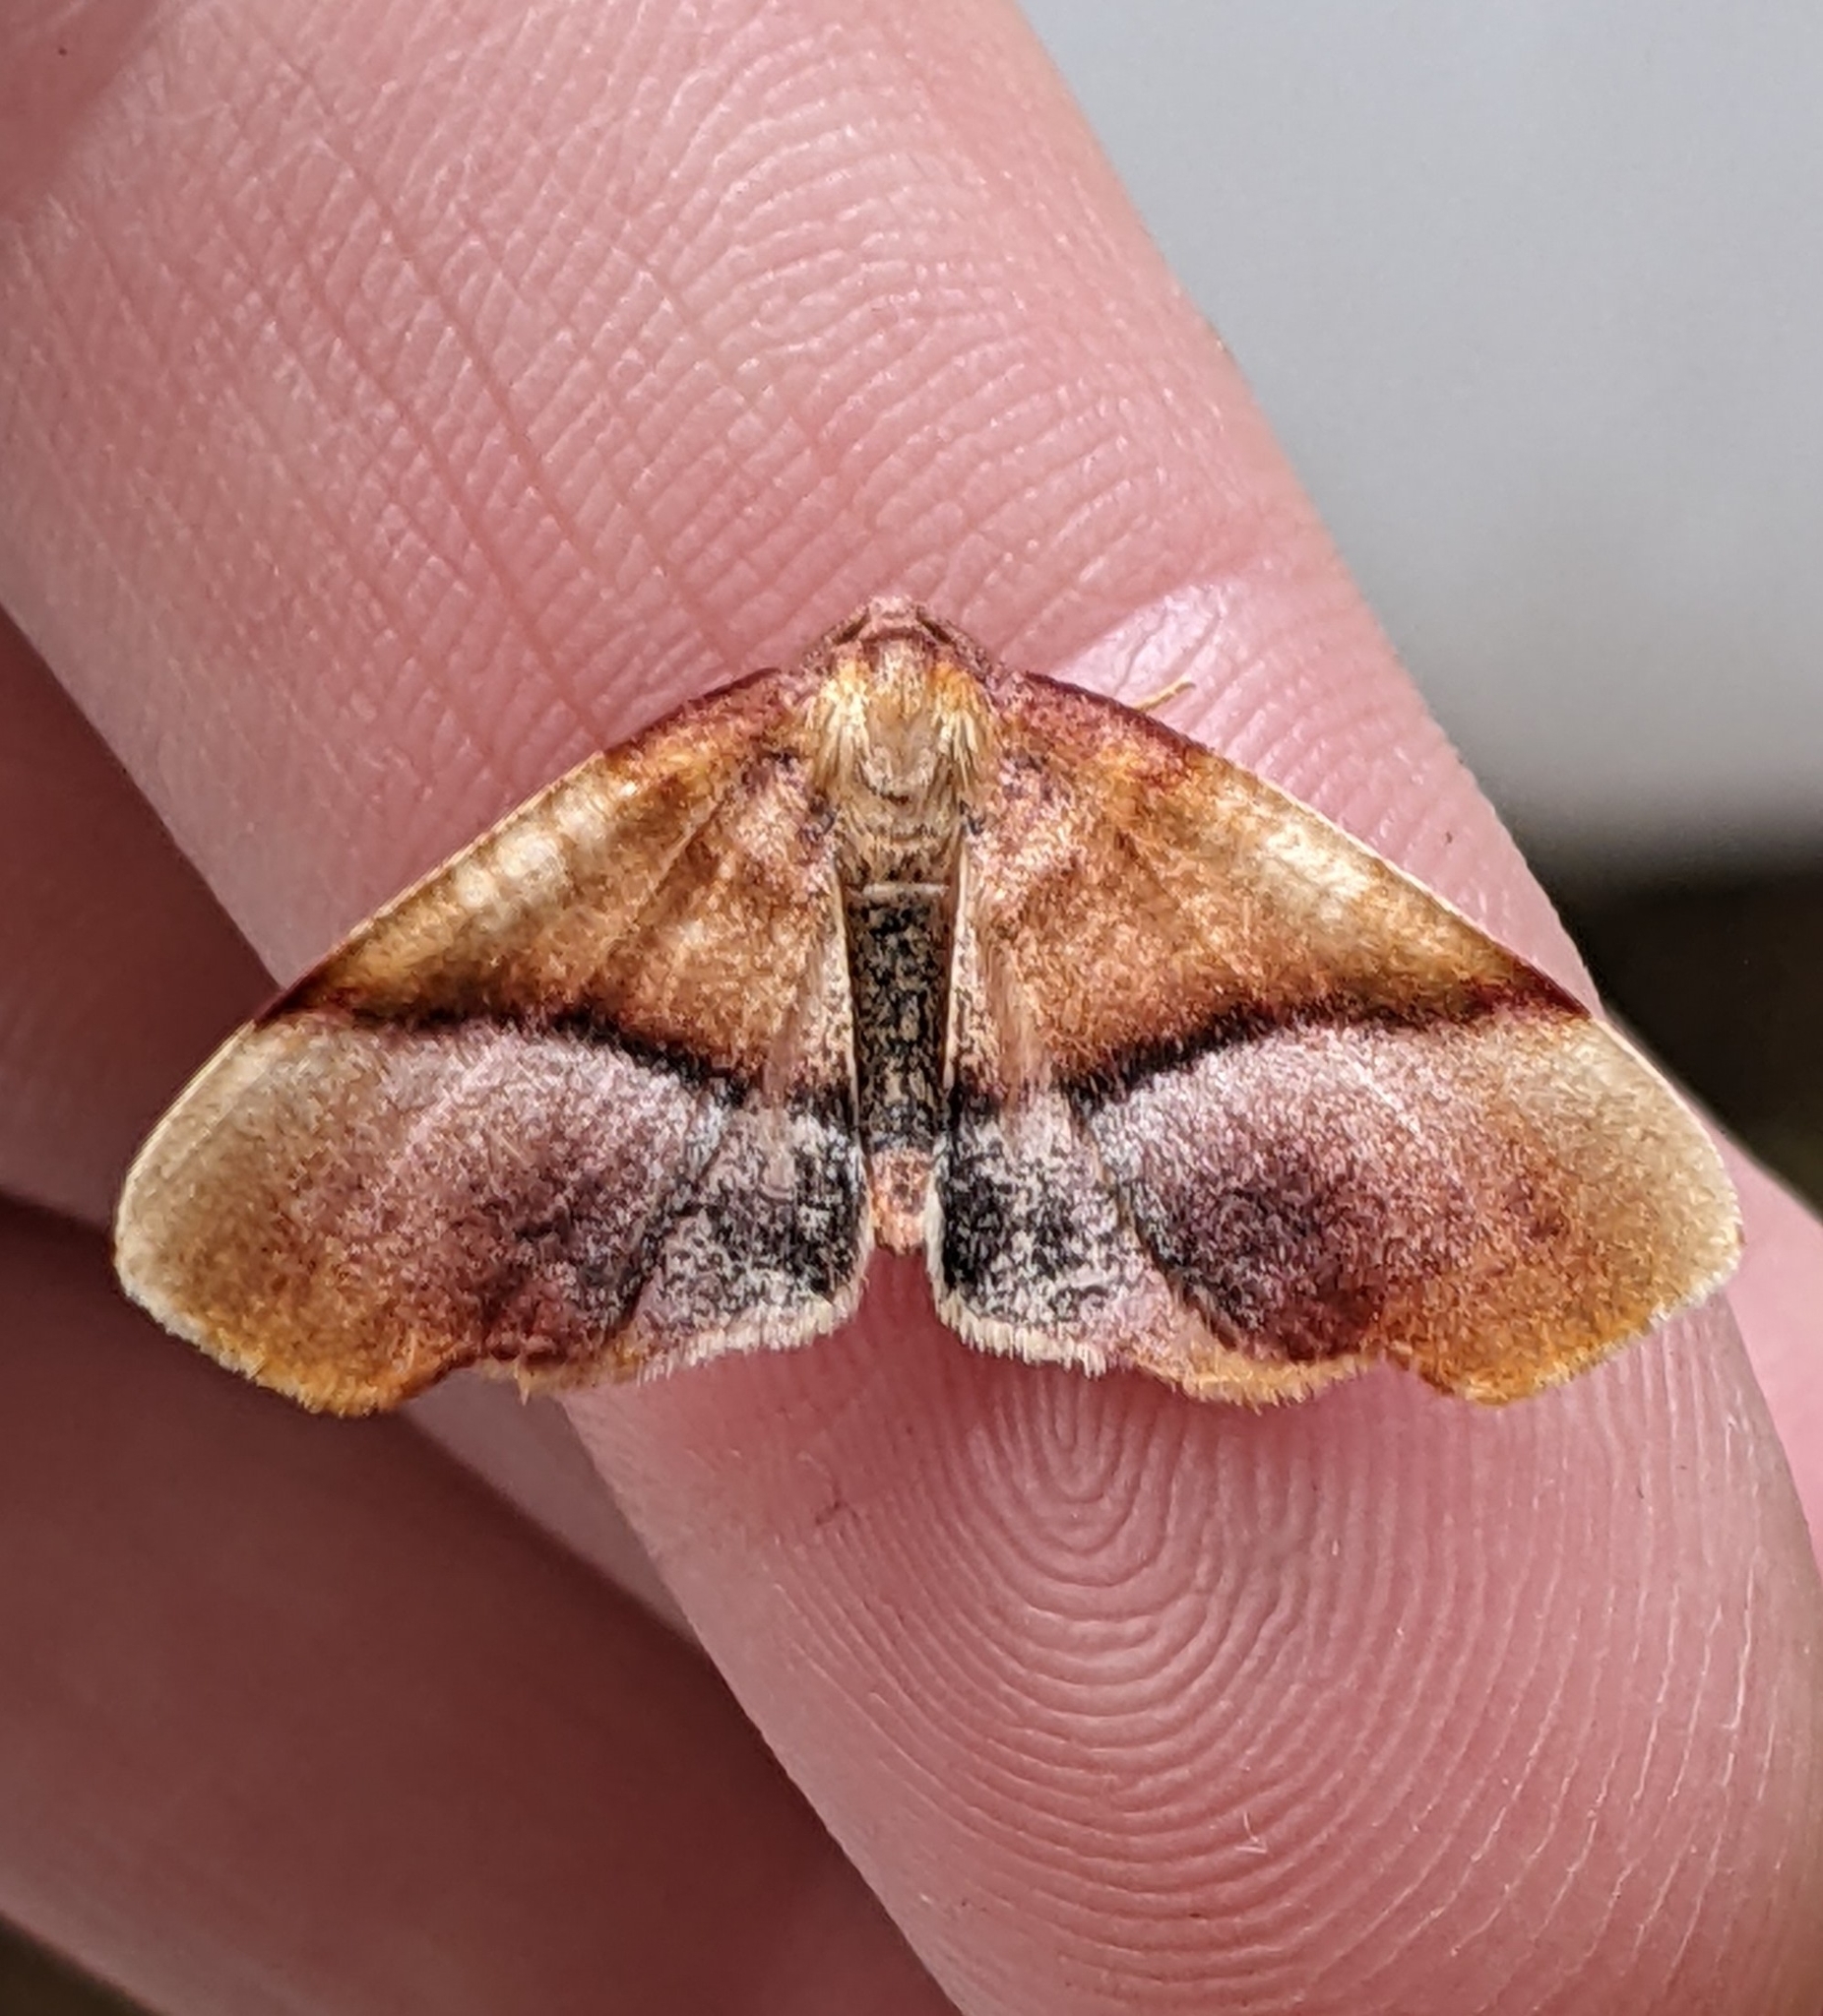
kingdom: Animalia
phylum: Arthropoda
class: Insecta
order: Lepidoptera
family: Geometridae
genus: Plagodis
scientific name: Plagodis phlogosaria
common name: Straight-lined plagodis
